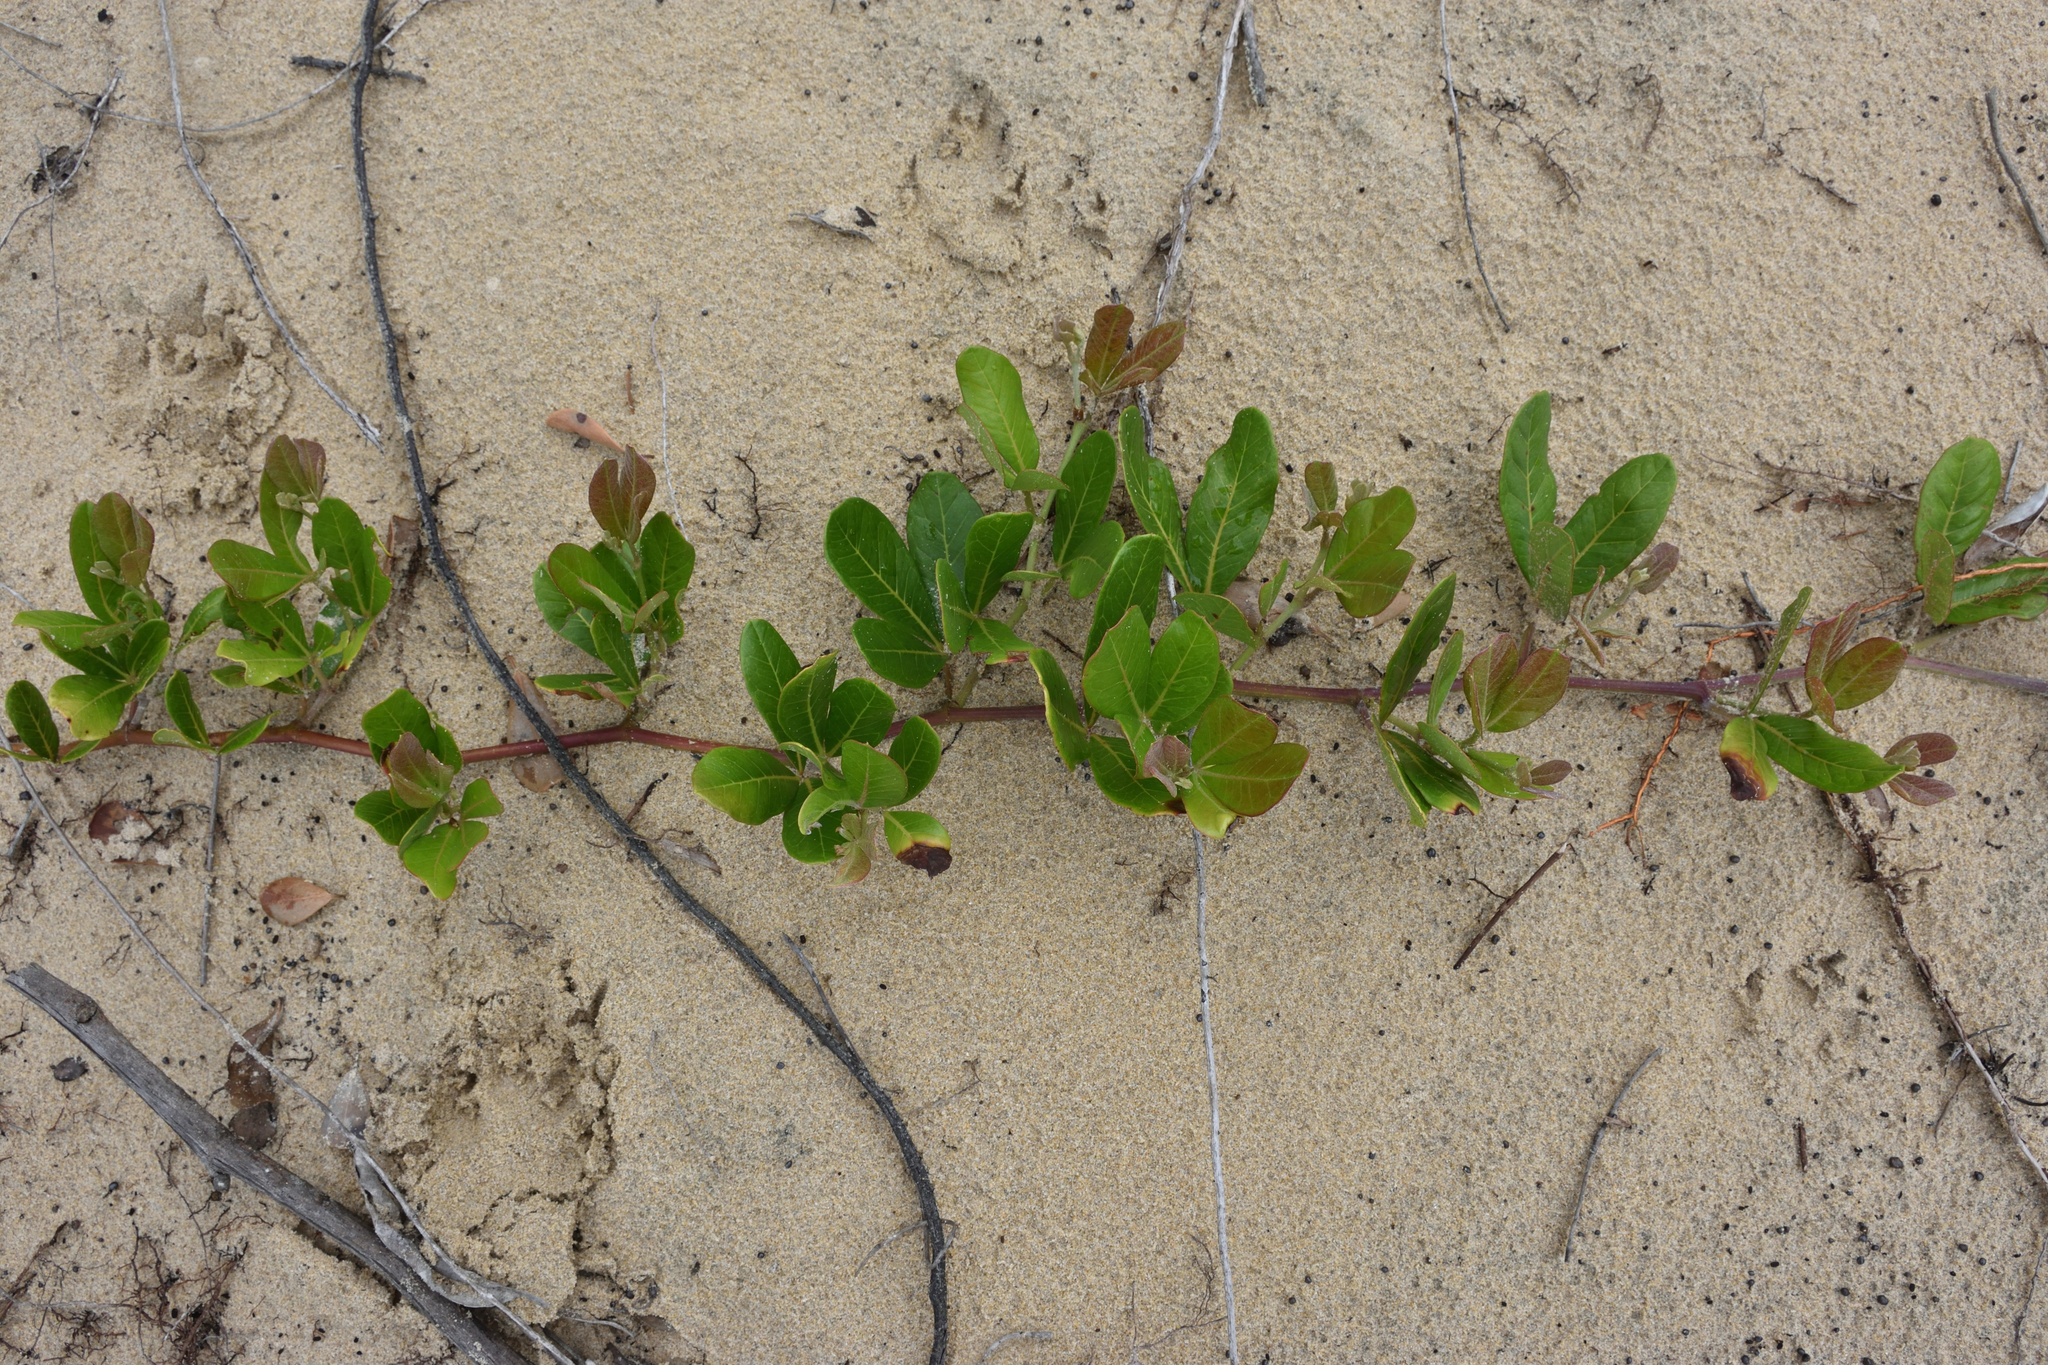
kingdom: Plantae
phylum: Tracheophyta
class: Magnoliopsida
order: Vitales
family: Vitaceae
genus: Rhoicissus
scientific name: Rhoicissus digitata
